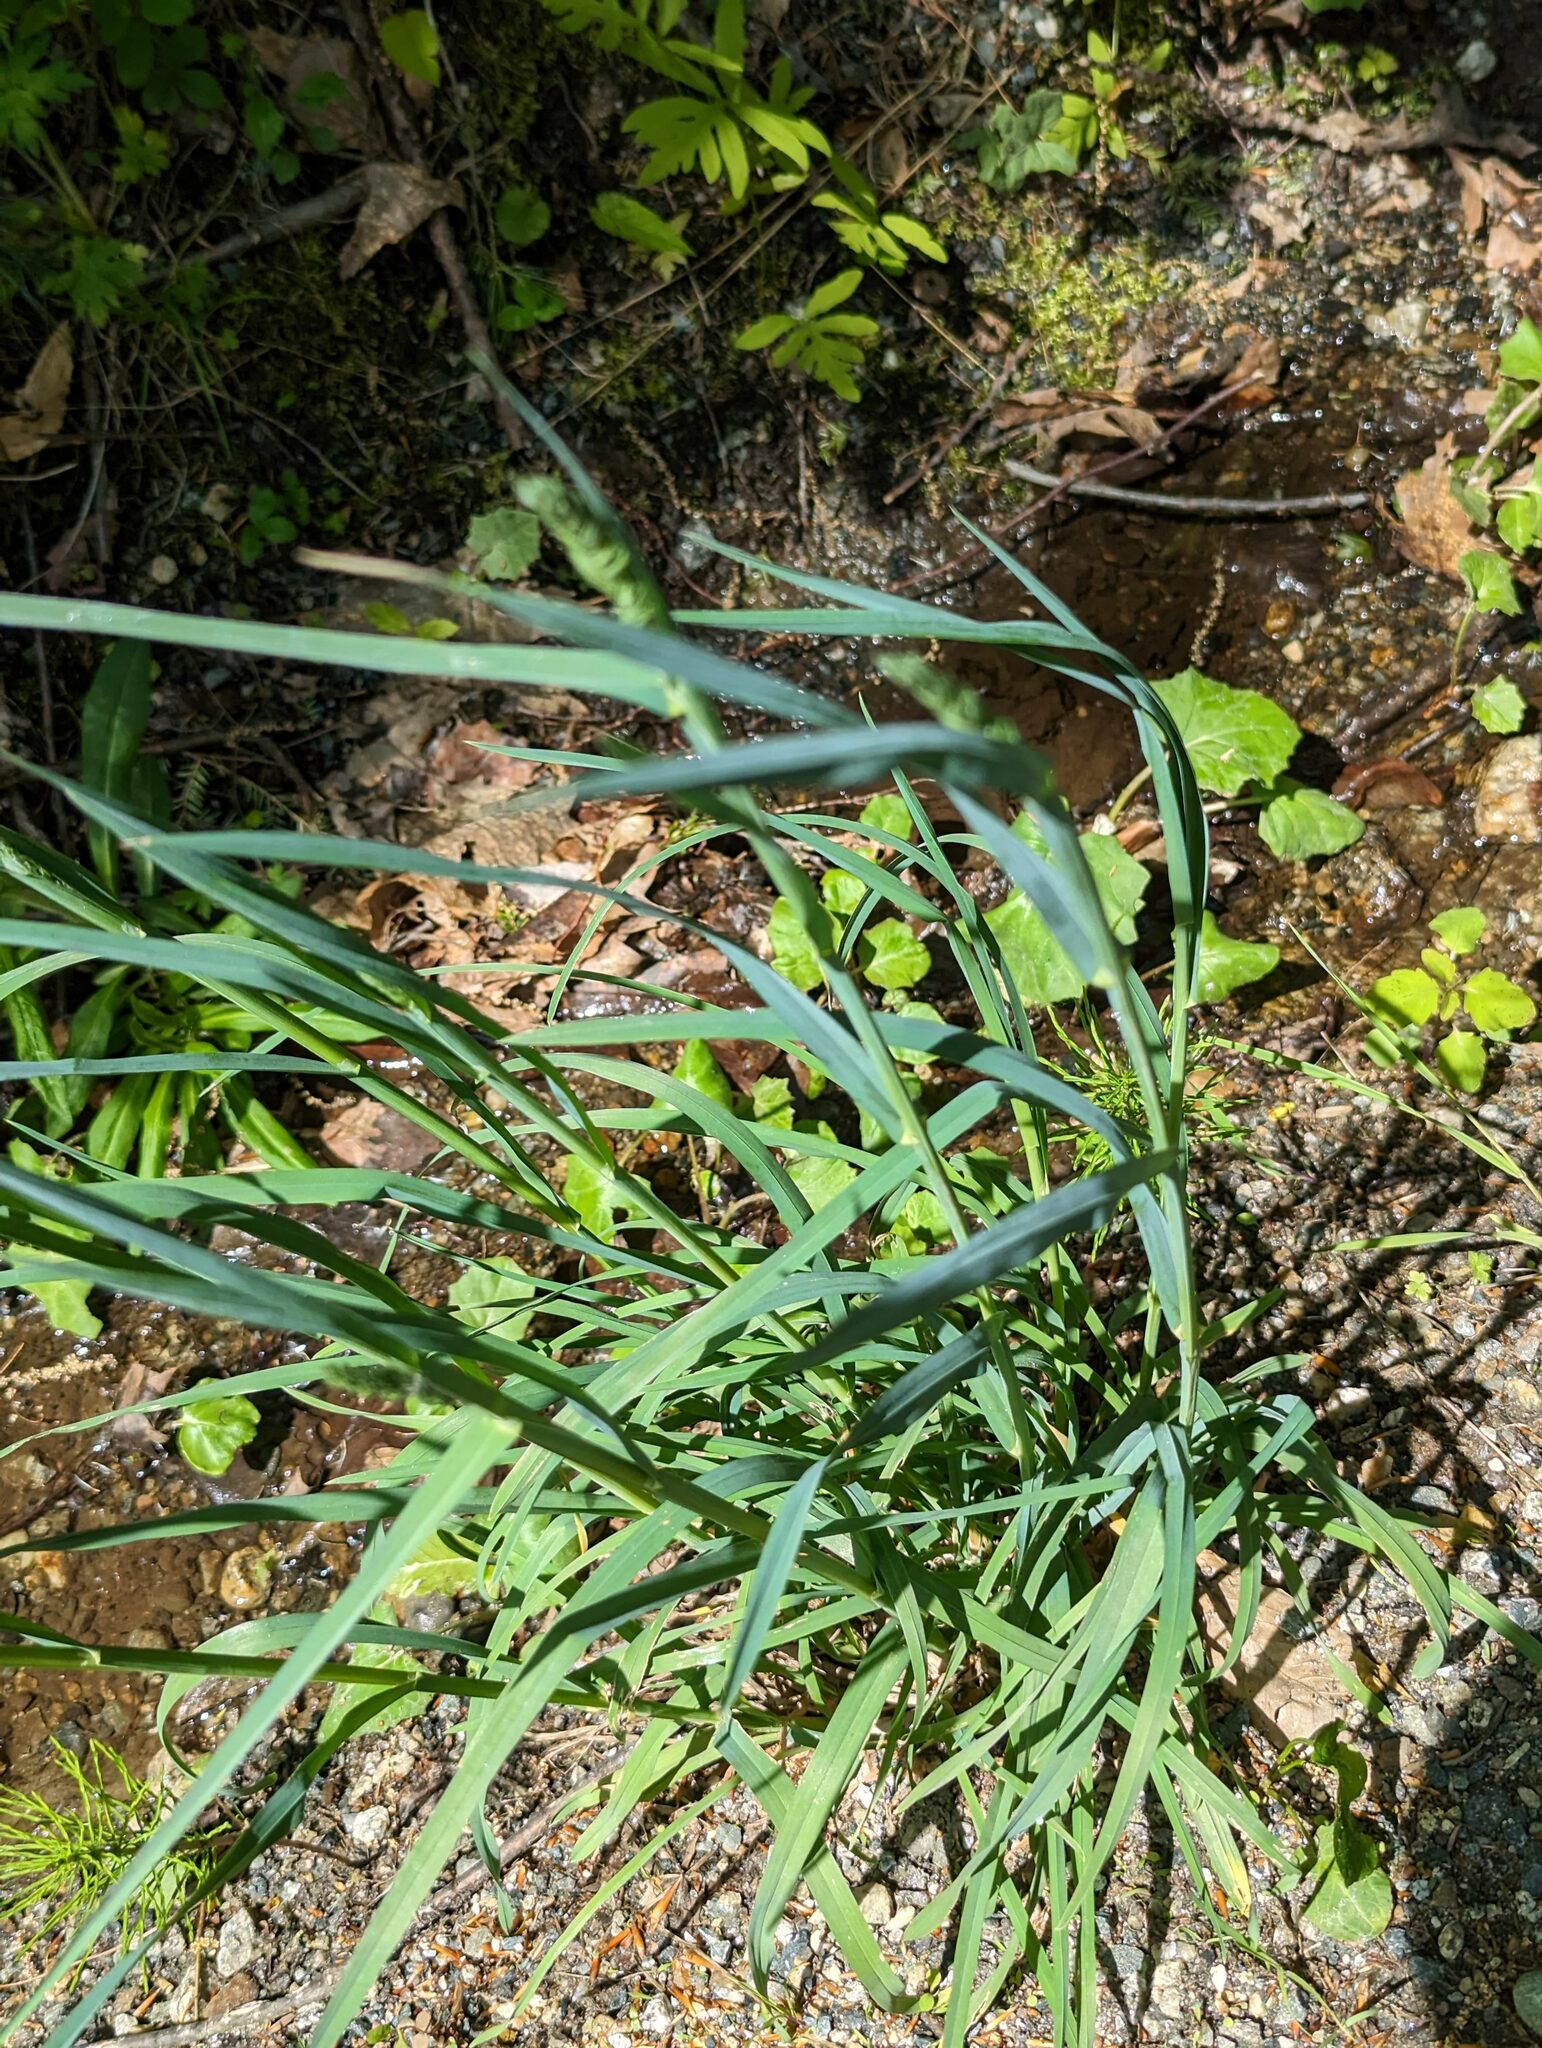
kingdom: Plantae
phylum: Tracheophyta
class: Liliopsida
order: Poales
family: Poaceae
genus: Dactylis
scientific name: Dactylis glomerata
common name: Orchardgrass
